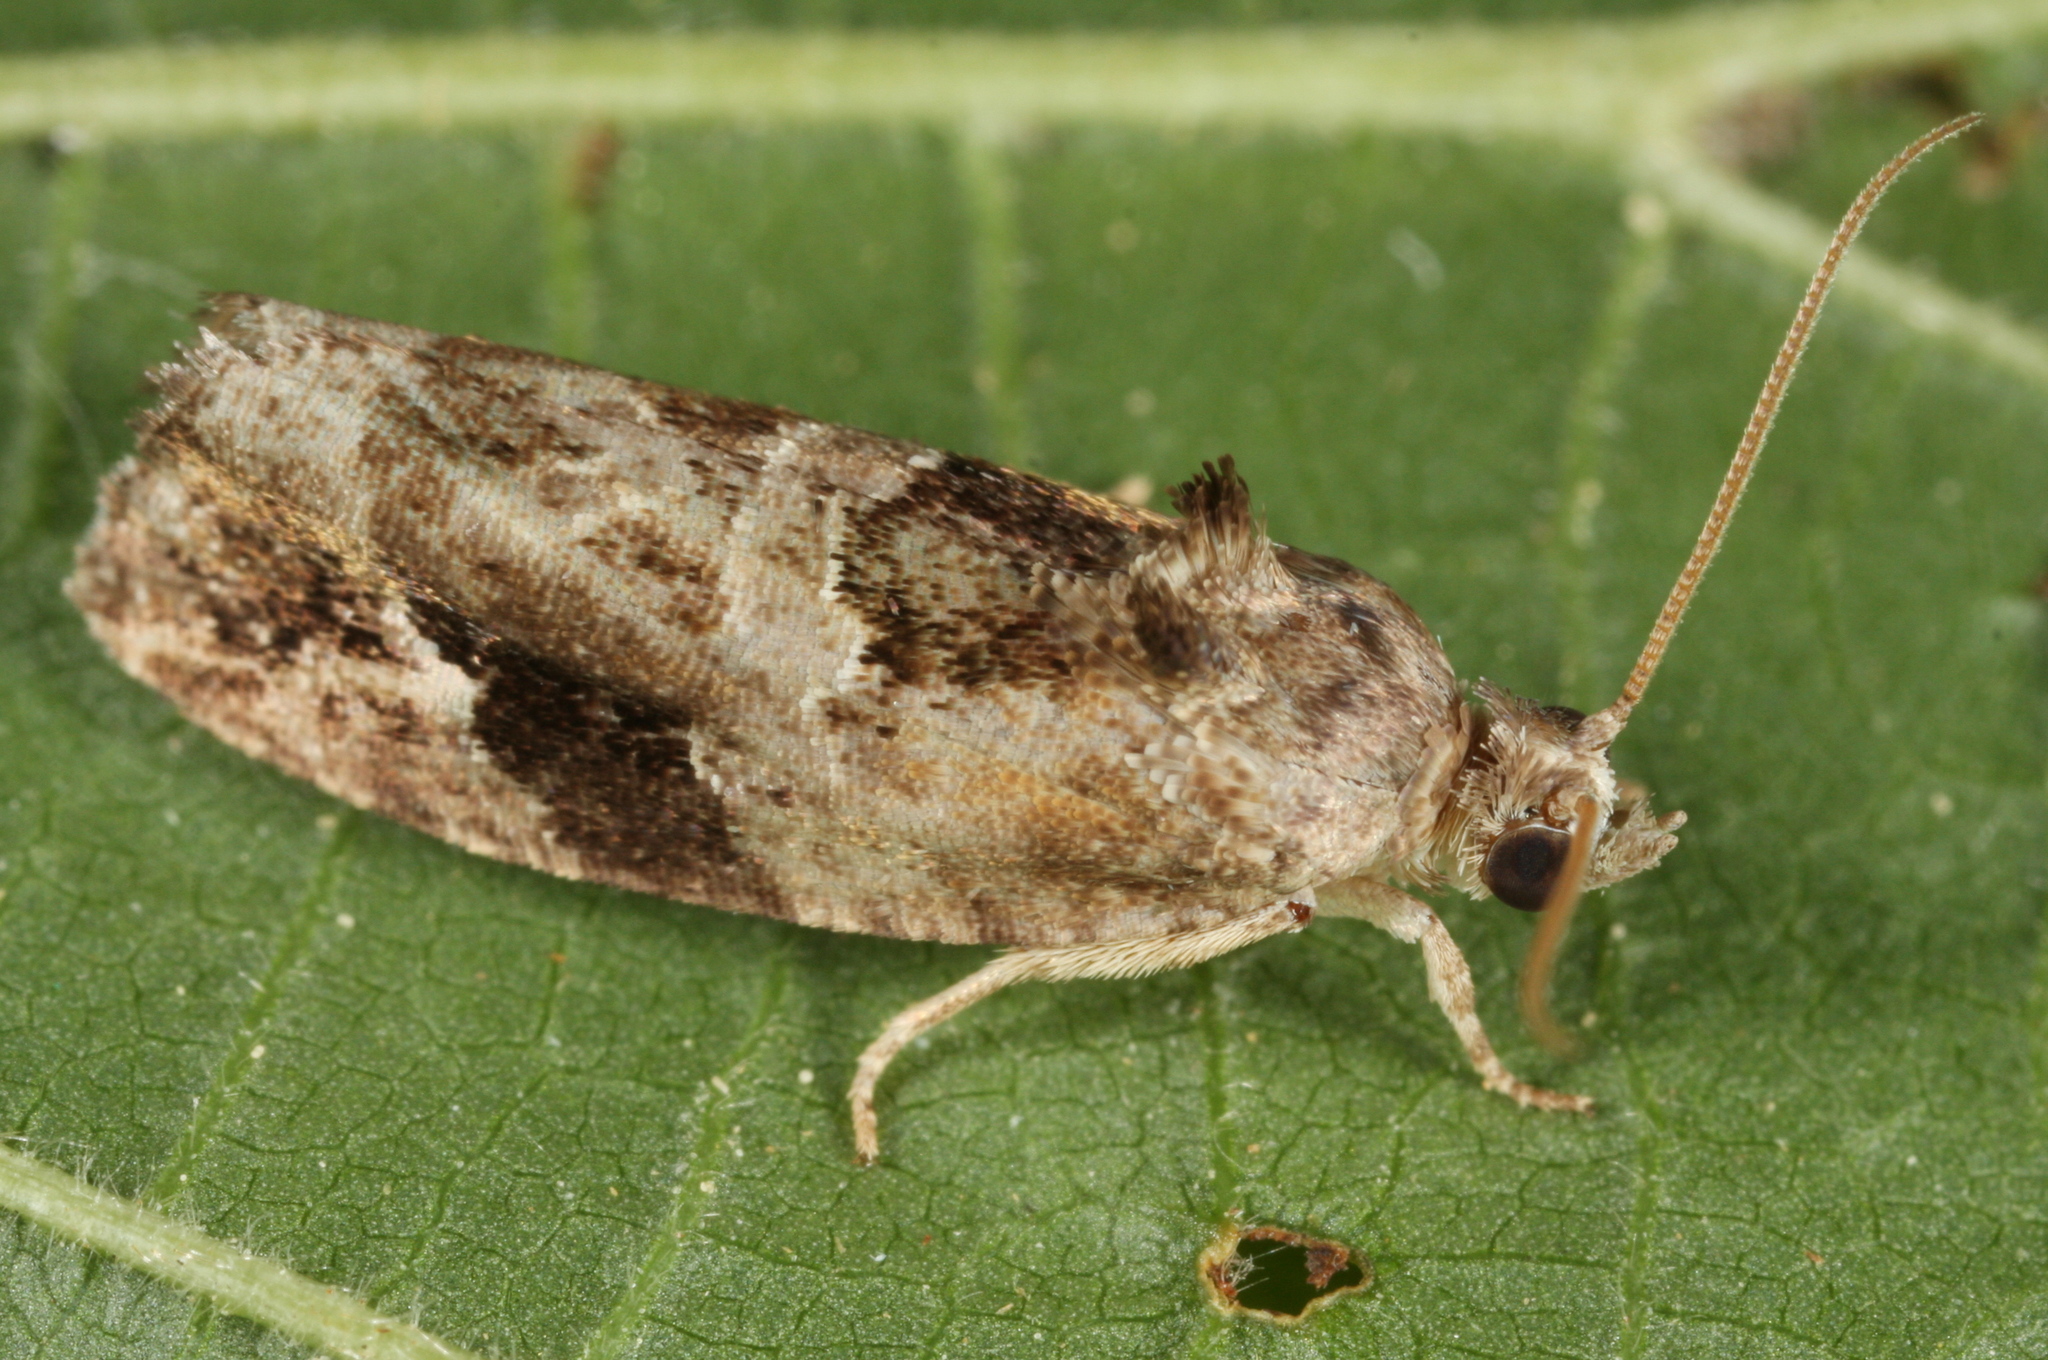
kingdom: Animalia
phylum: Arthropoda
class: Insecta
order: Lepidoptera
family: Tortricidae
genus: Eudemis
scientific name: Eudemis porphyrana
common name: Apple marble
